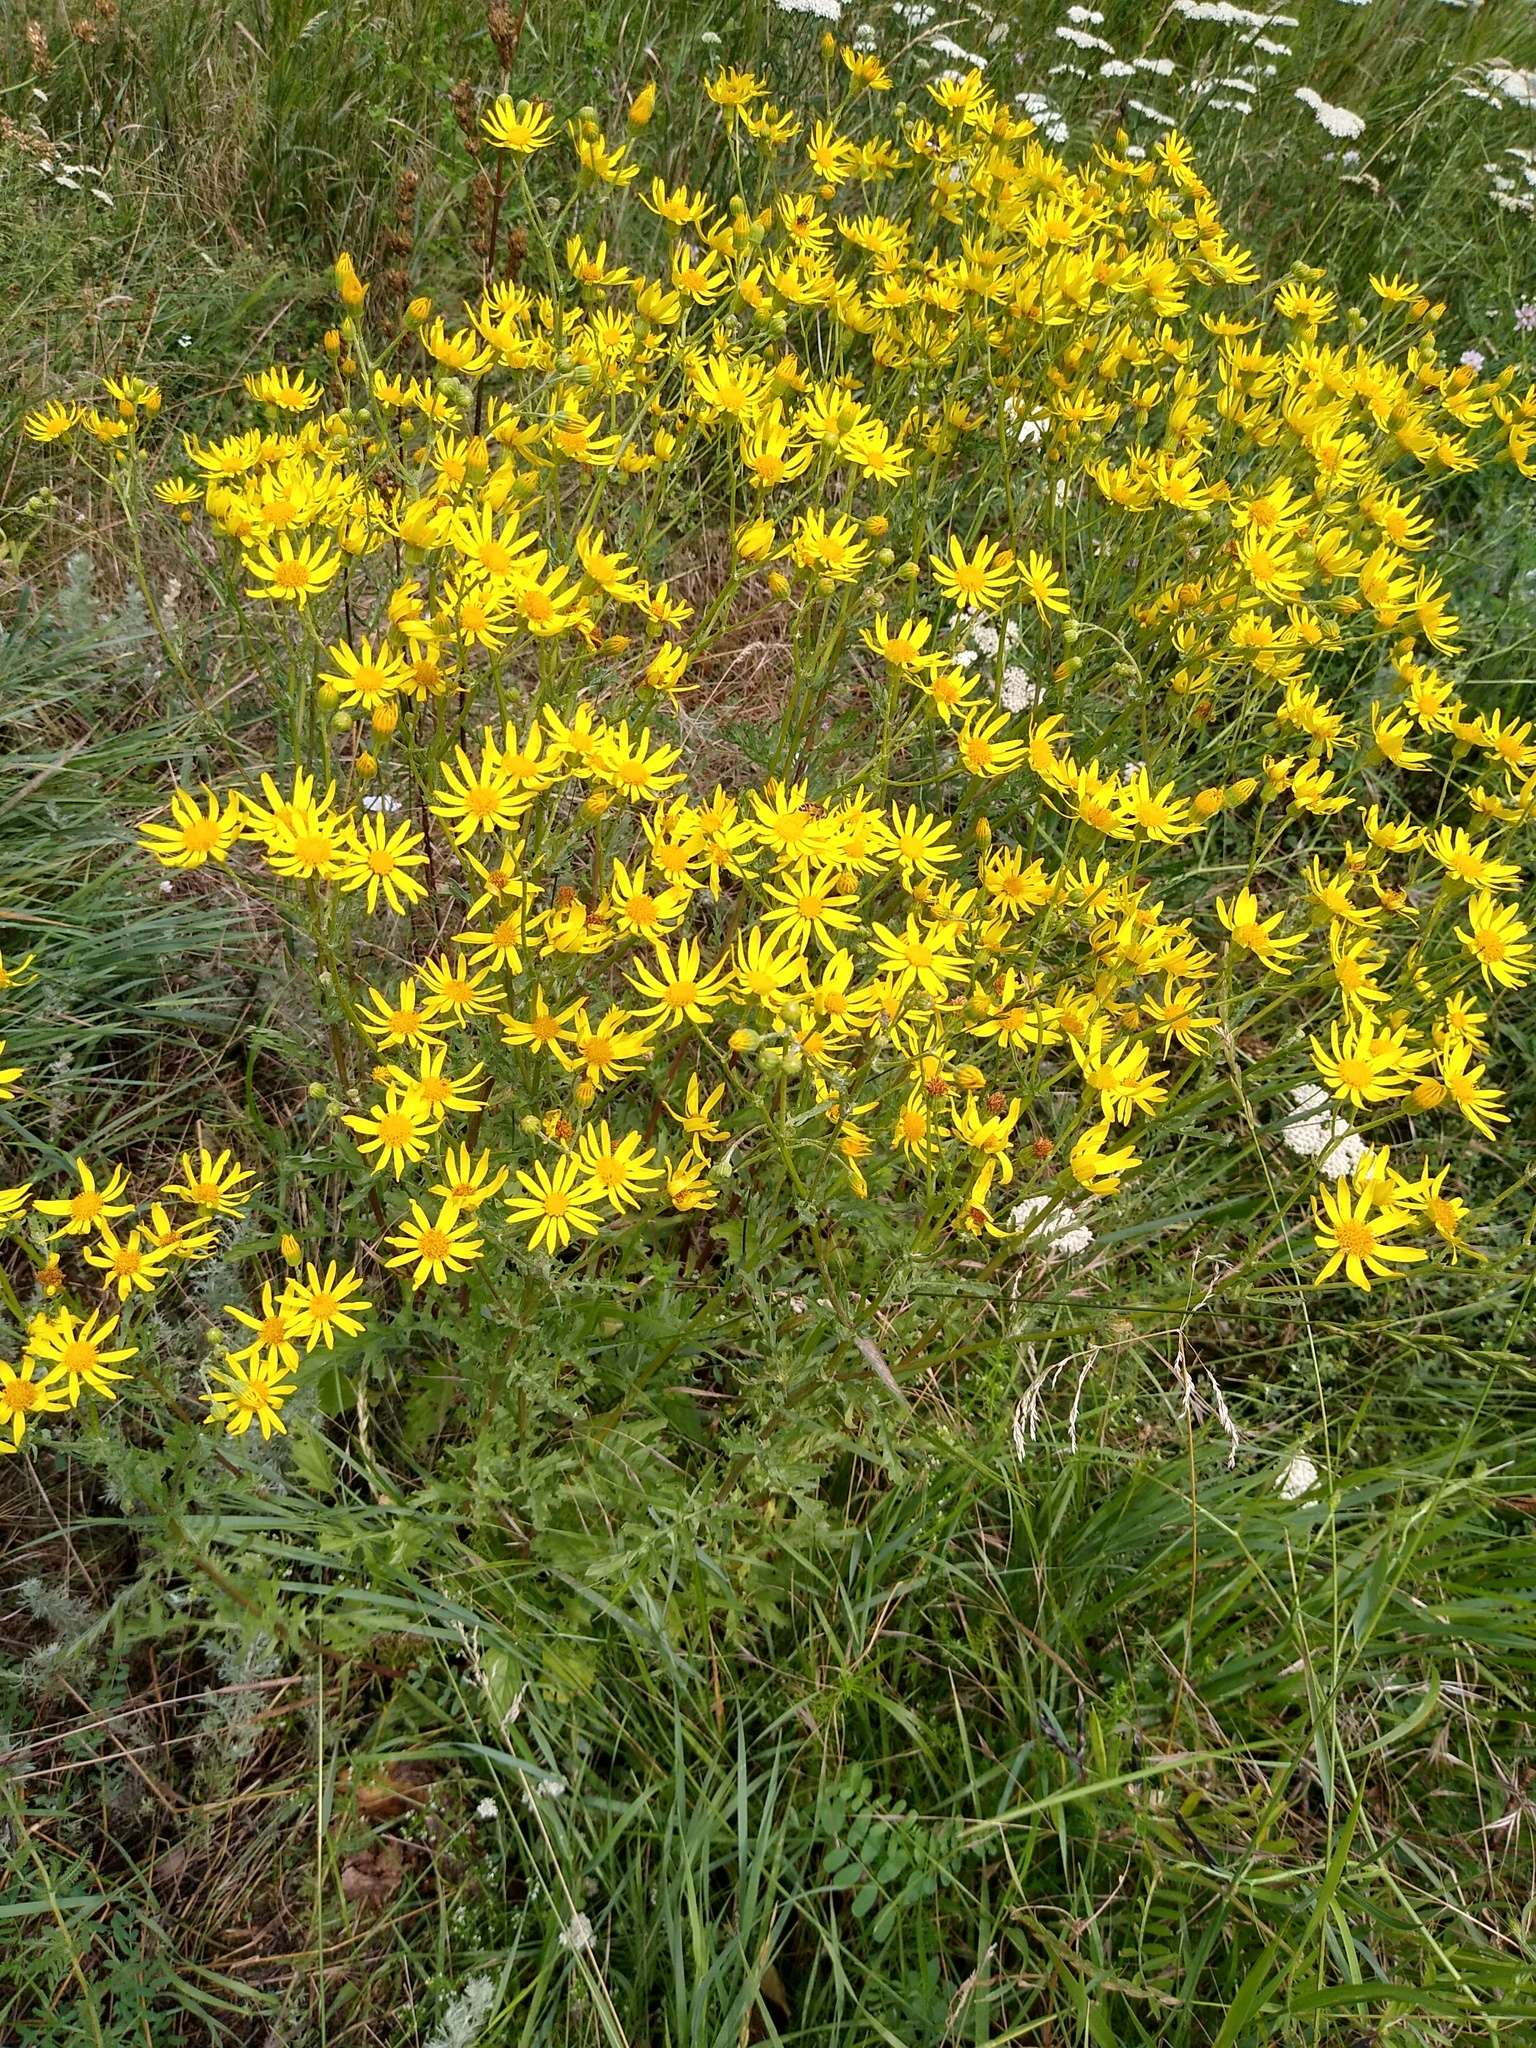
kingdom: Plantae
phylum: Tracheophyta
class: Magnoliopsida
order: Asterales
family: Asteraceae
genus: Jacobaea
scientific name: Jacobaea vulgaris
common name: Stinking willie
